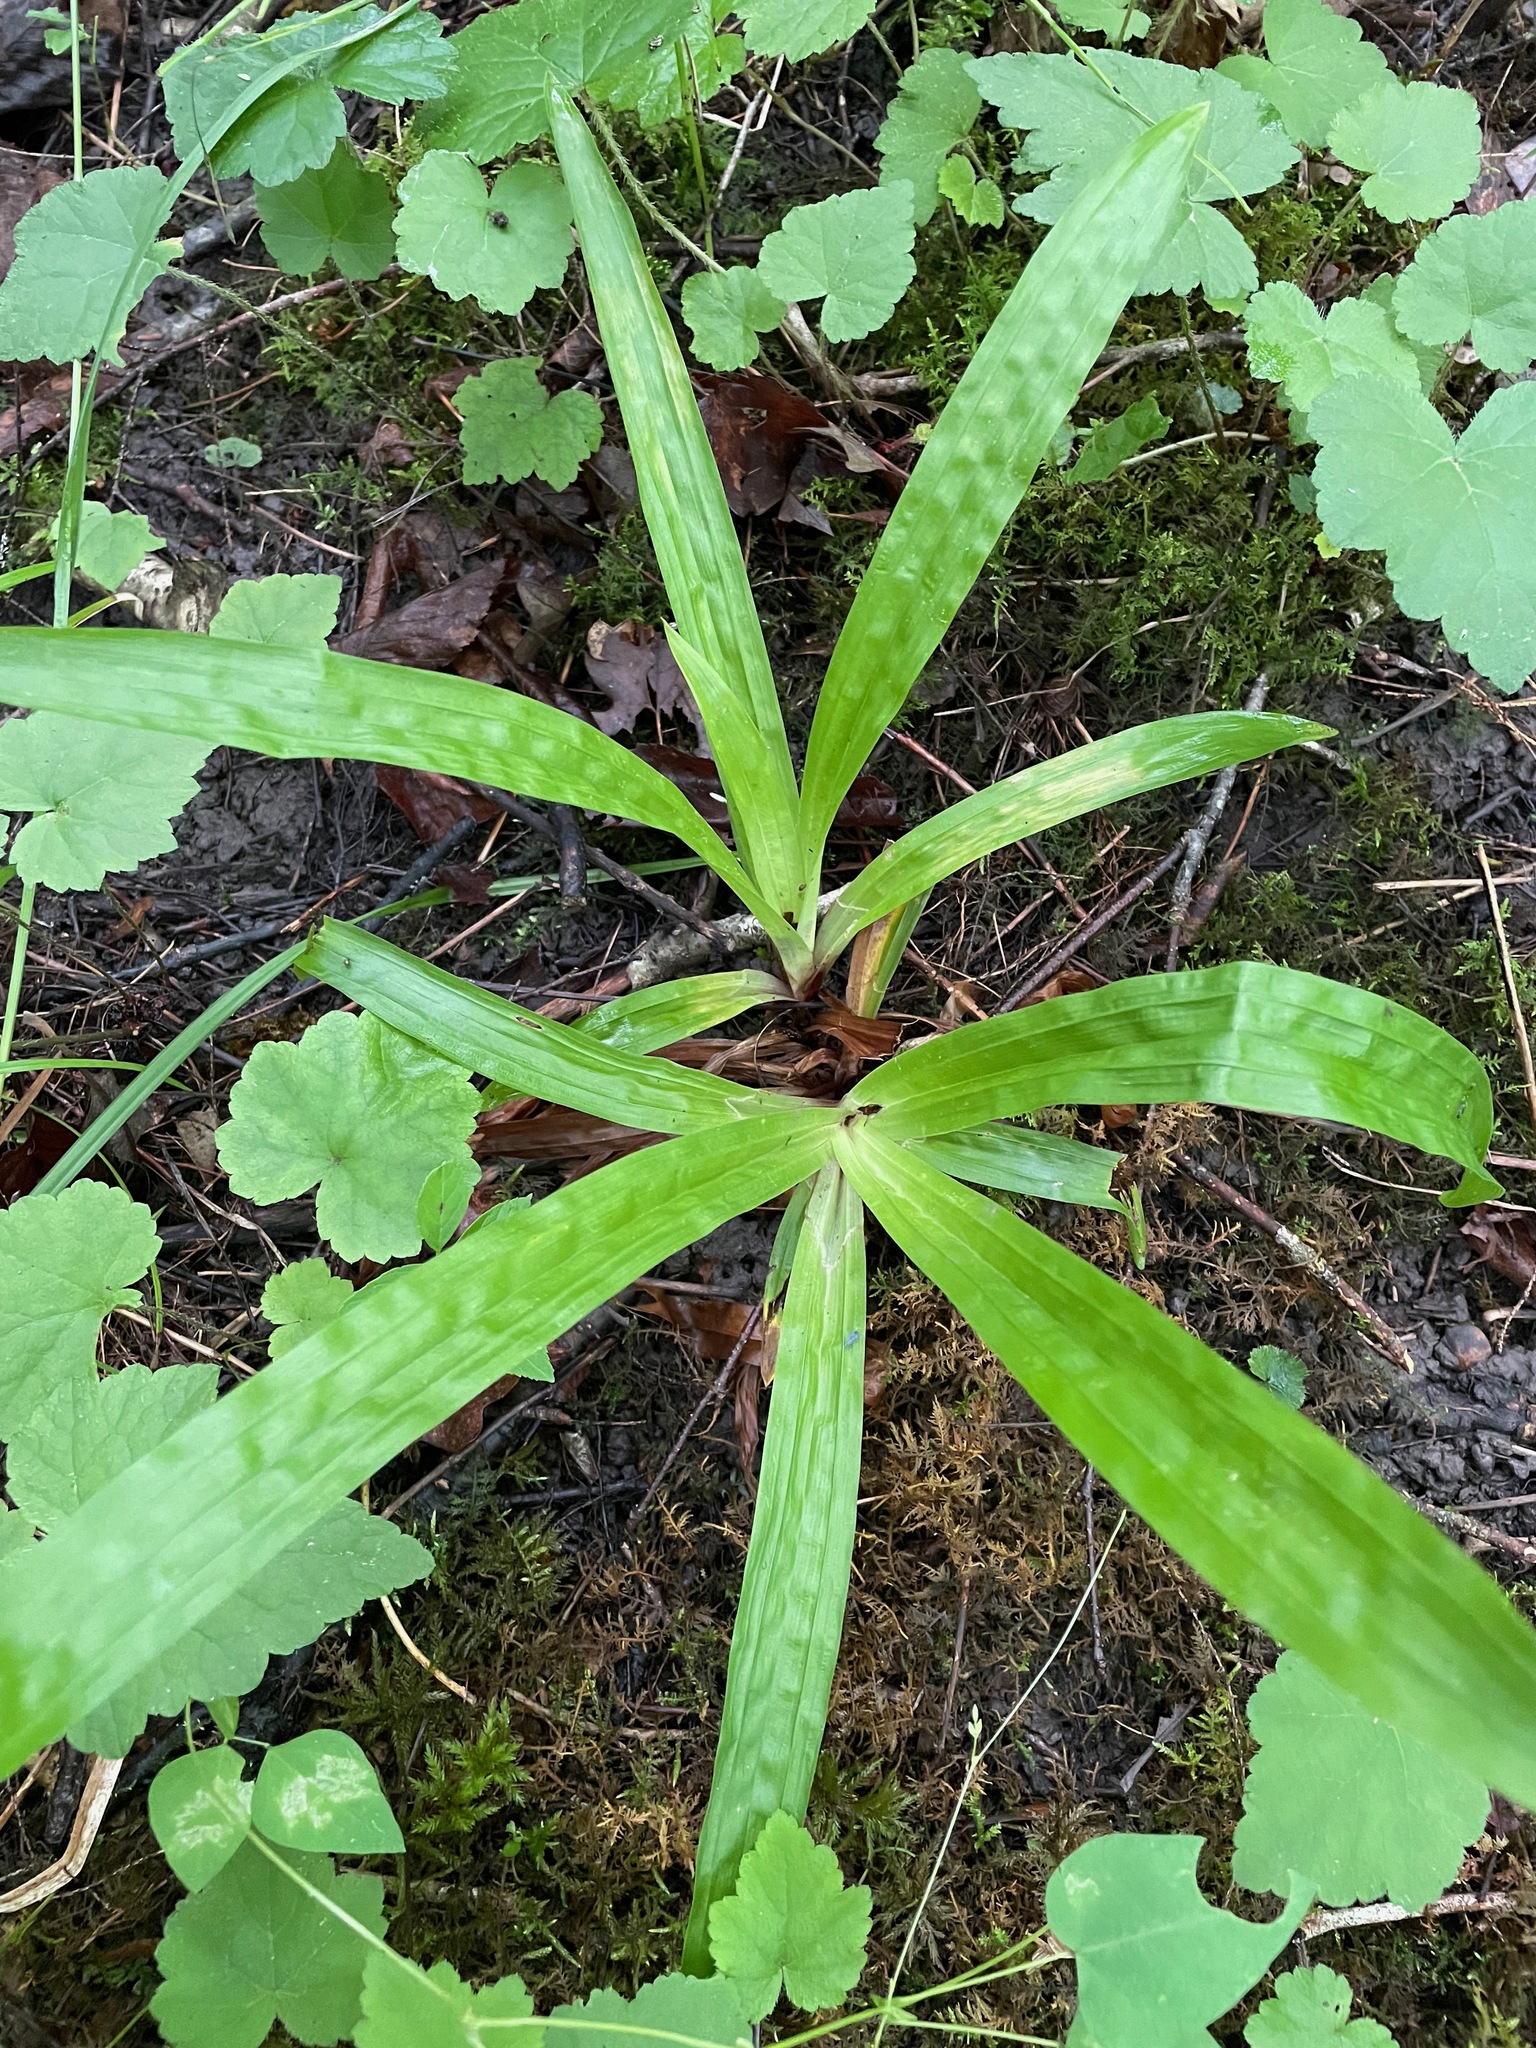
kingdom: Plantae
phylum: Tracheophyta
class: Liliopsida
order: Poales
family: Cyperaceae
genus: Carex
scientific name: Carex plantaginea
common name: Plantain-leaved sedge
